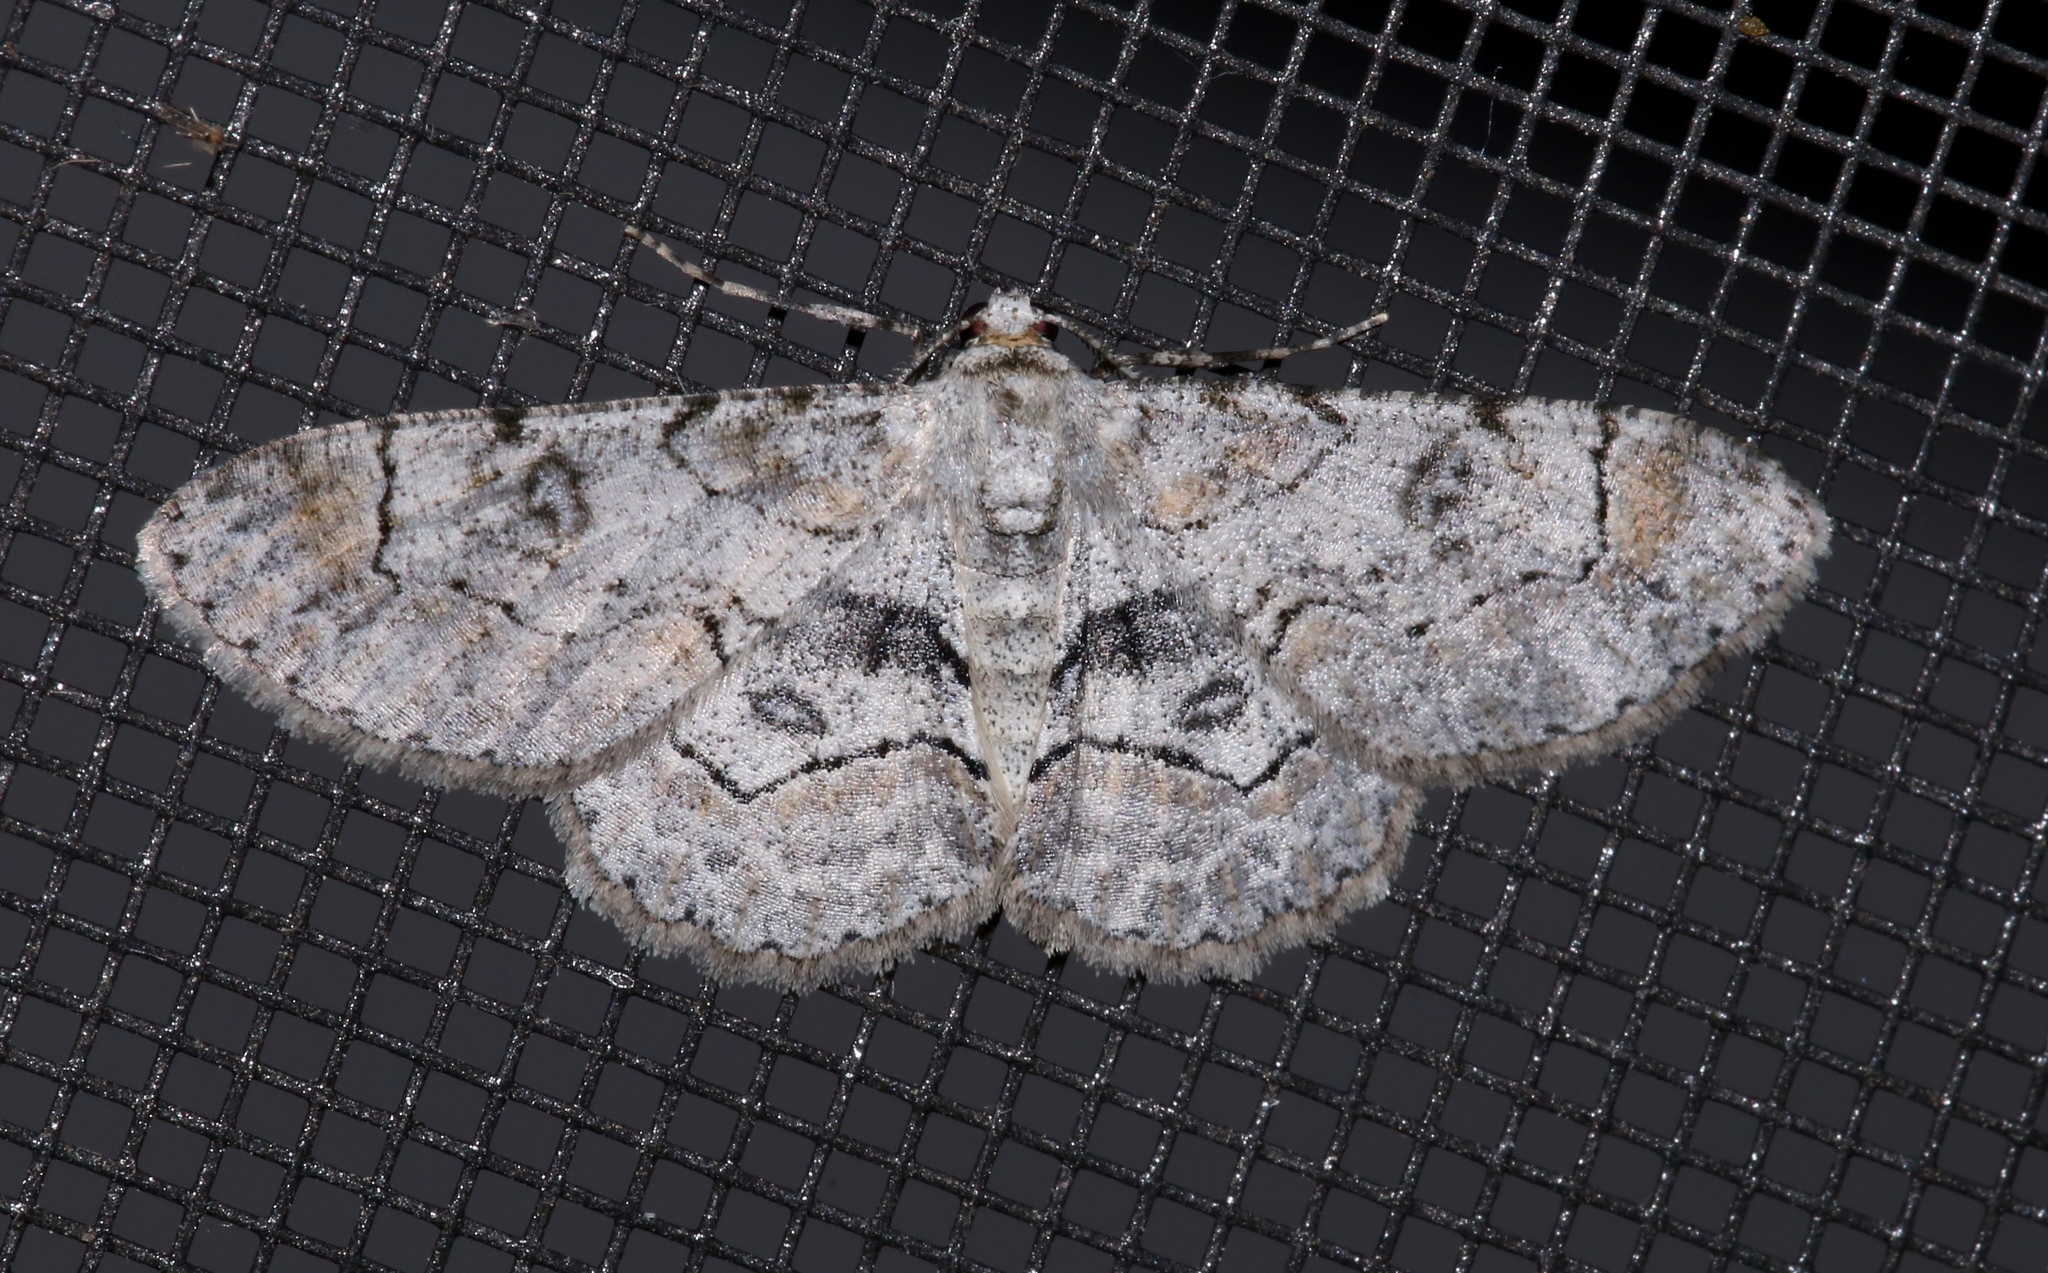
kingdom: Animalia
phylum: Arthropoda
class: Insecta
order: Lepidoptera
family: Geometridae
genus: Iridopsis
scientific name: Iridopsis larvaria
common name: Bent-line gray
